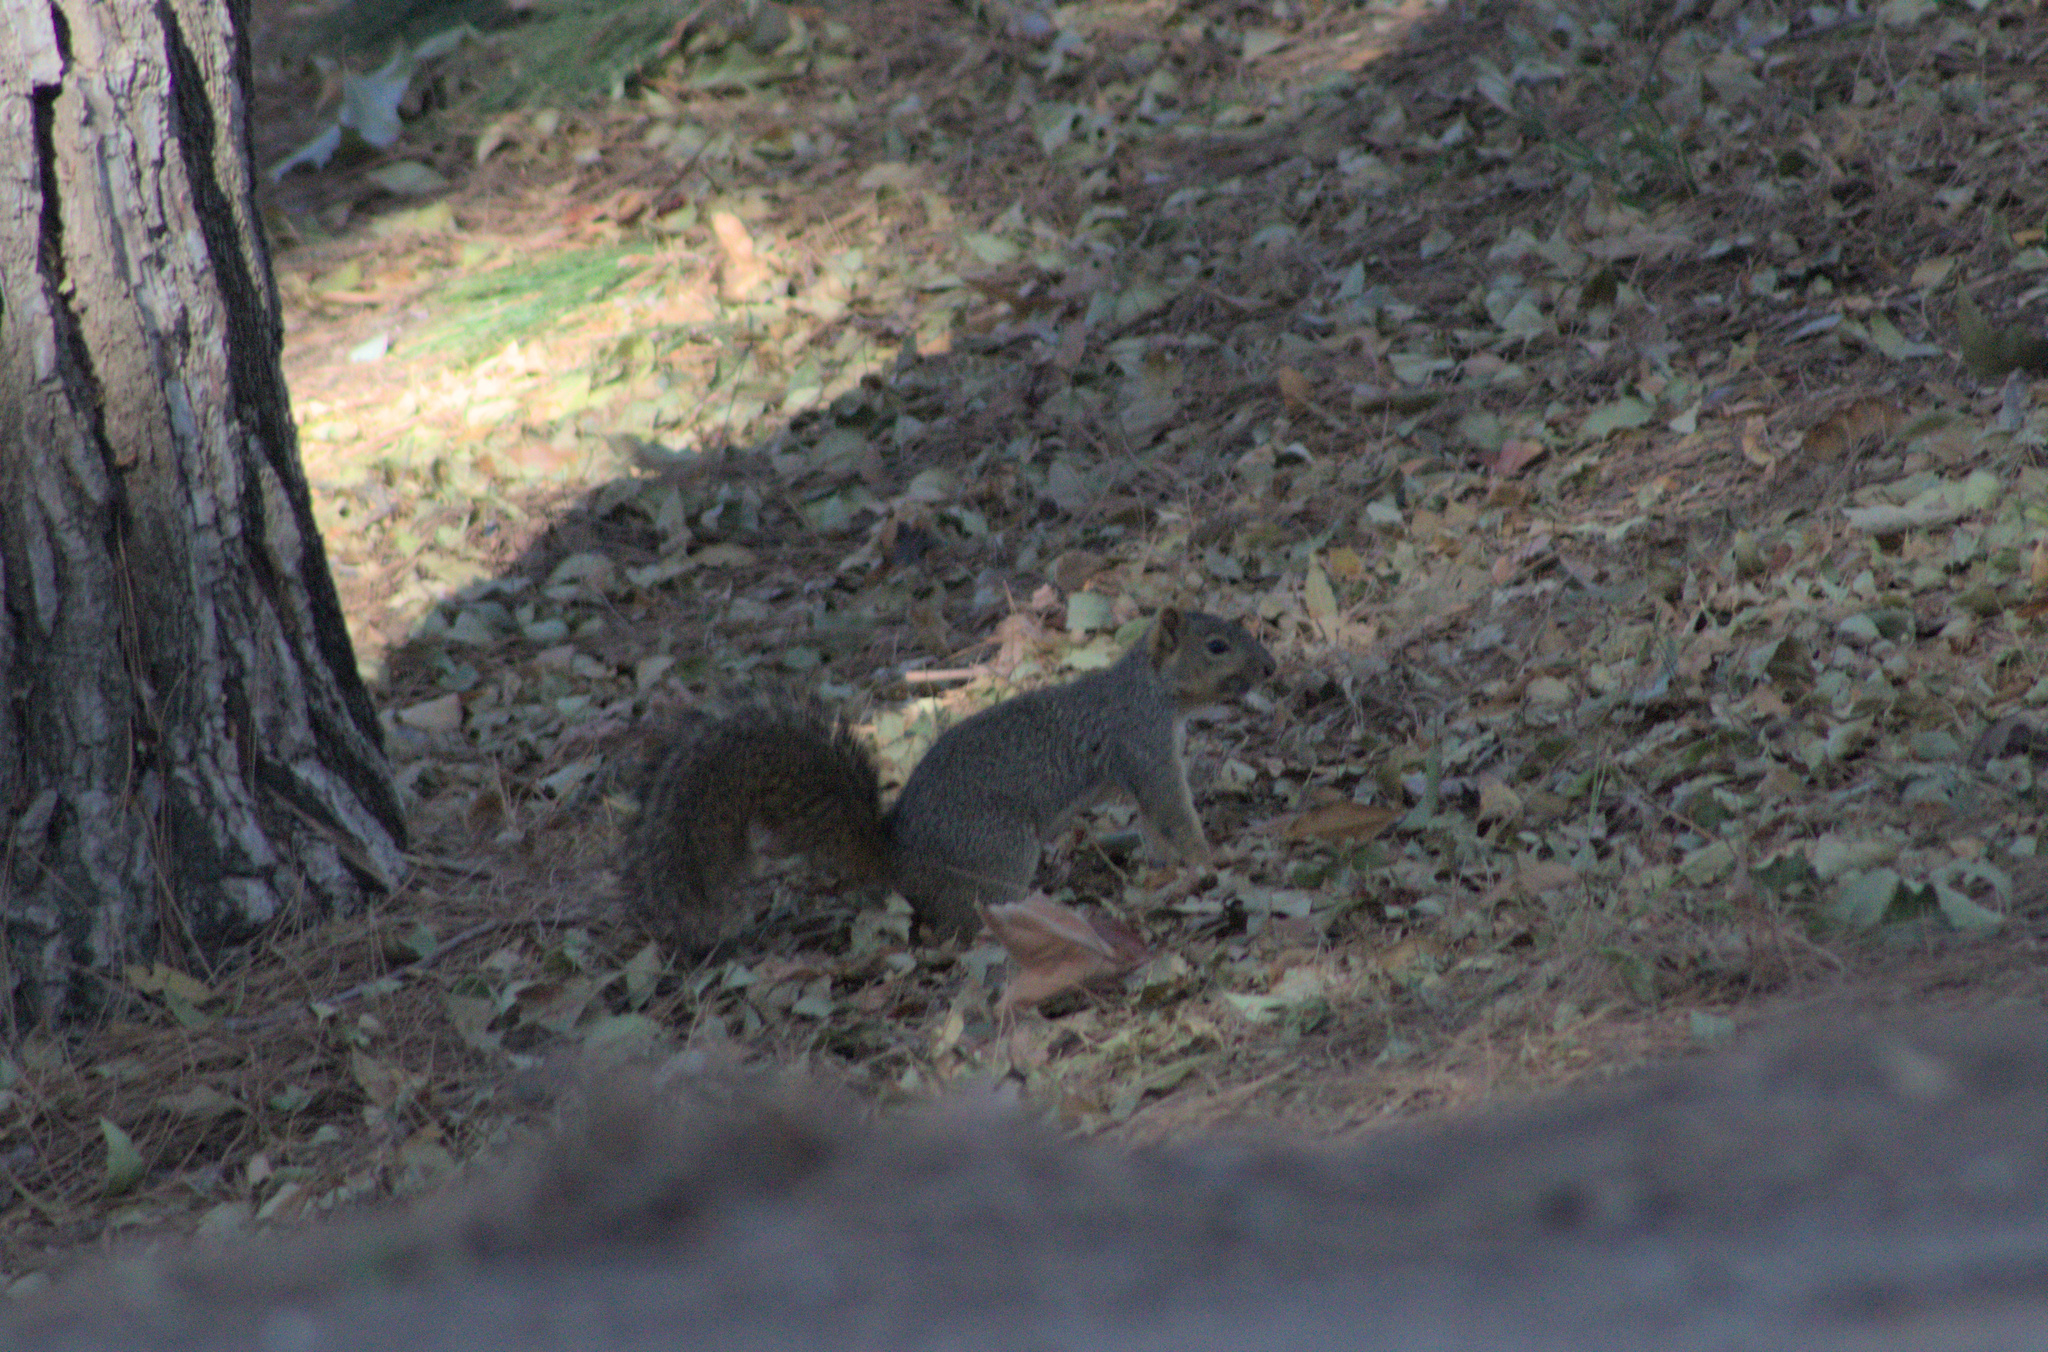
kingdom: Animalia
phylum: Chordata
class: Mammalia
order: Rodentia
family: Sciuridae
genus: Sciurus
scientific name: Sciurus niger
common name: Fox squirrel
